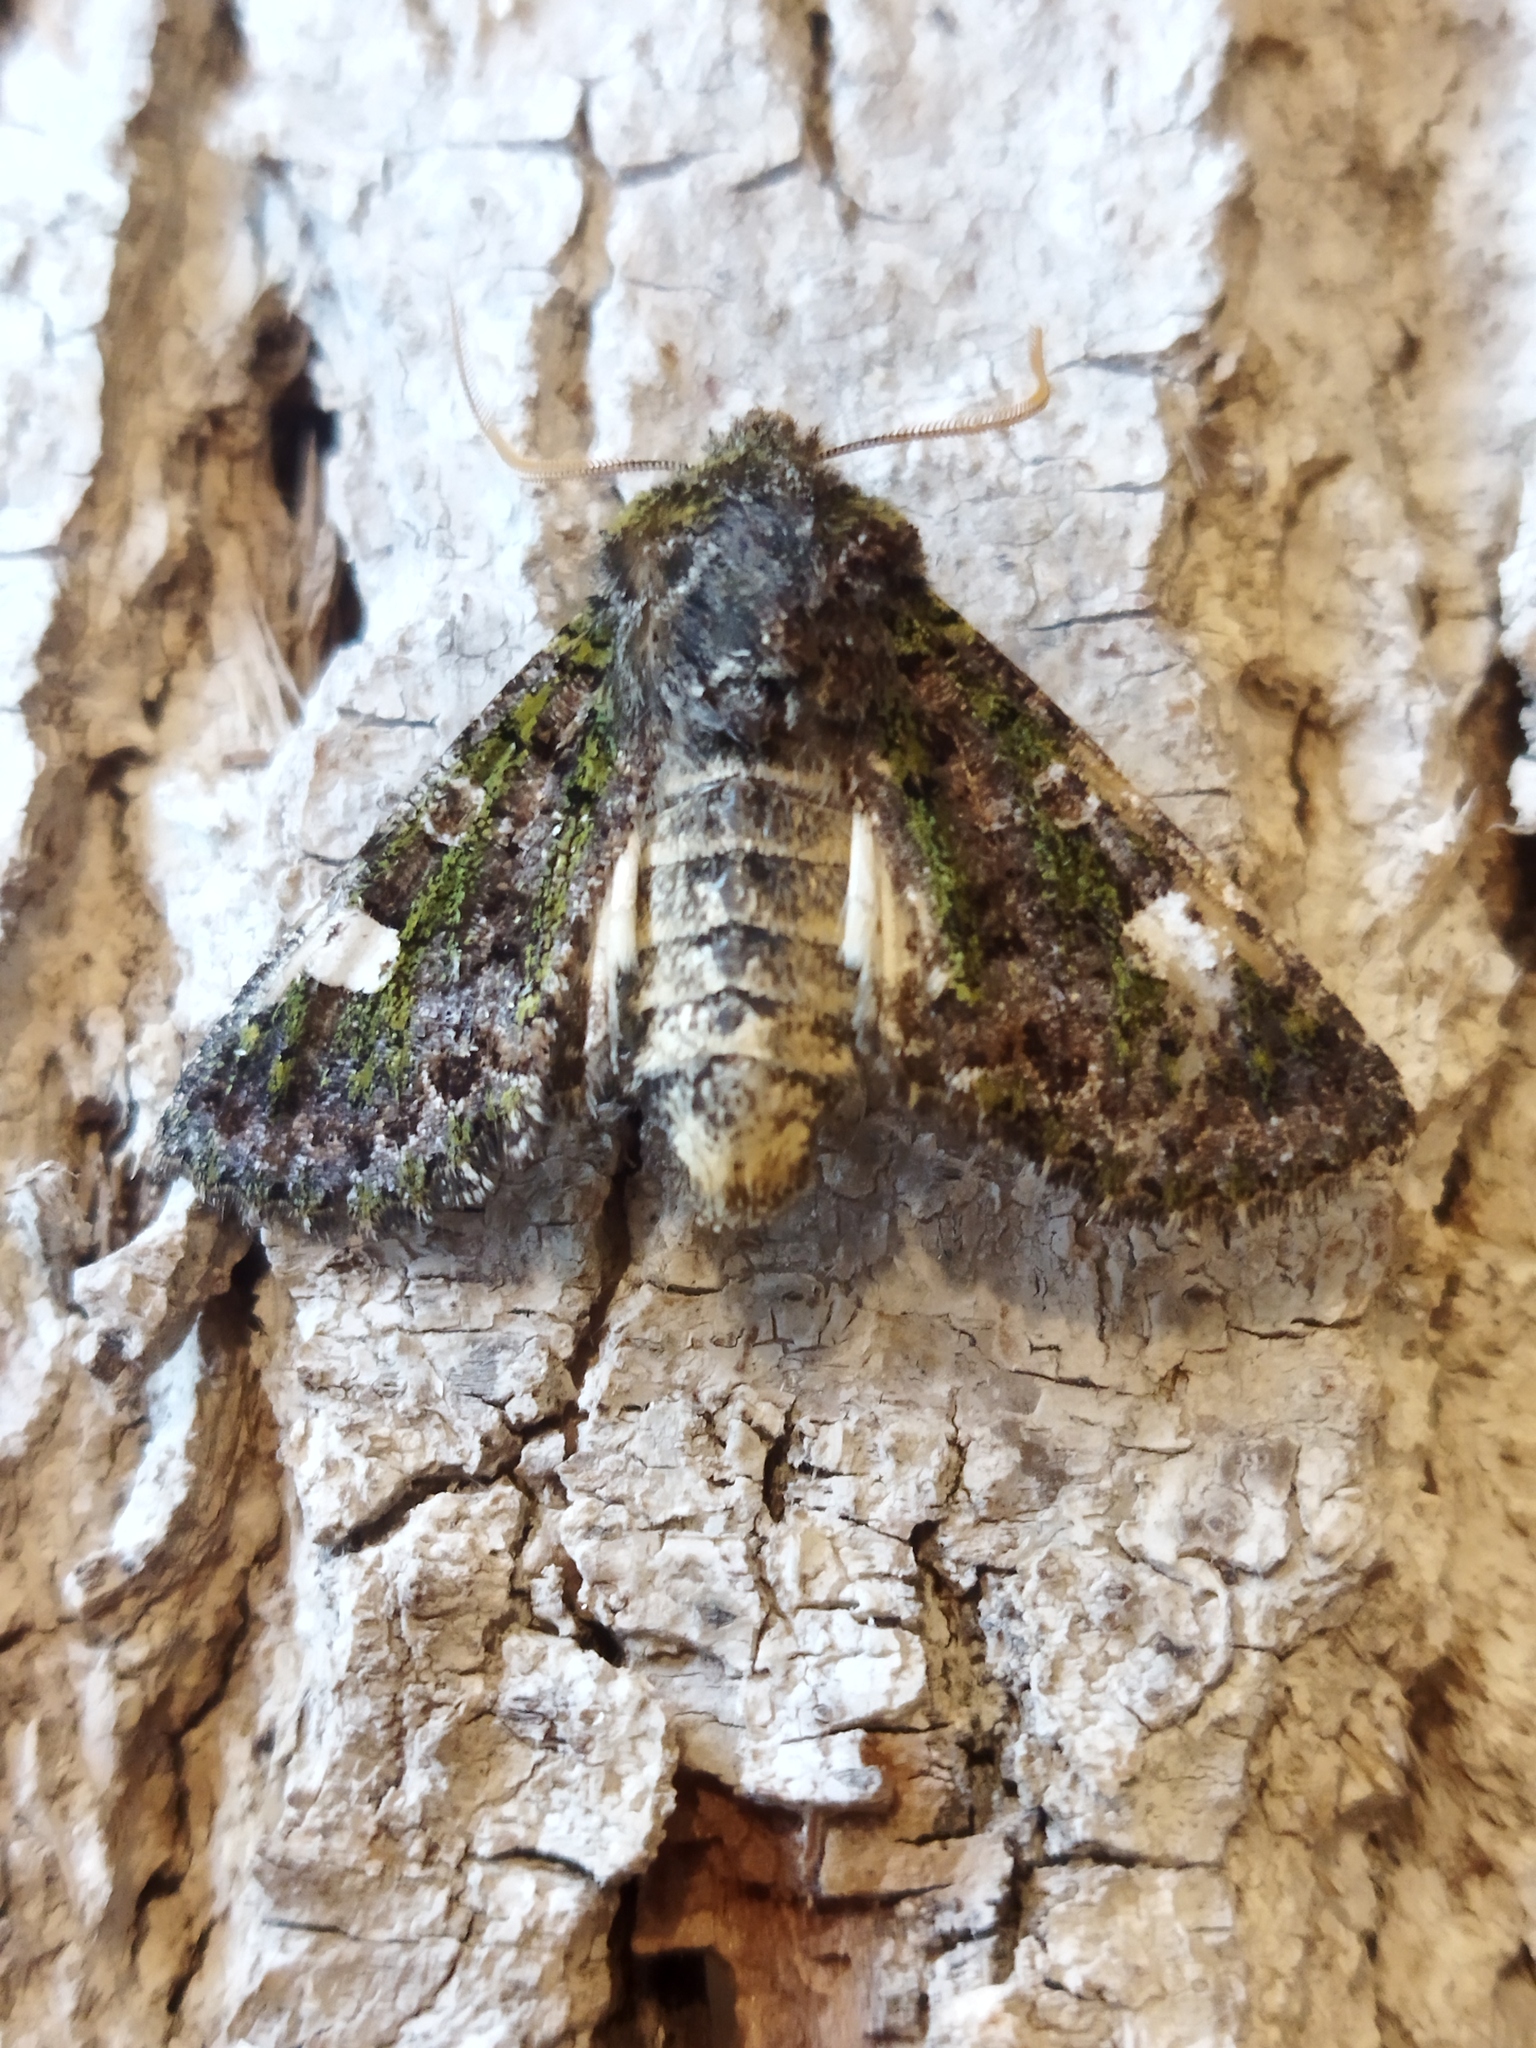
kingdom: Animalia
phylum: Arthropoda
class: Insecta
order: Lepidoptera
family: Noctuidae
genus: Valeria
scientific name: Valeria oleagina
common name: Green-brindled dot
